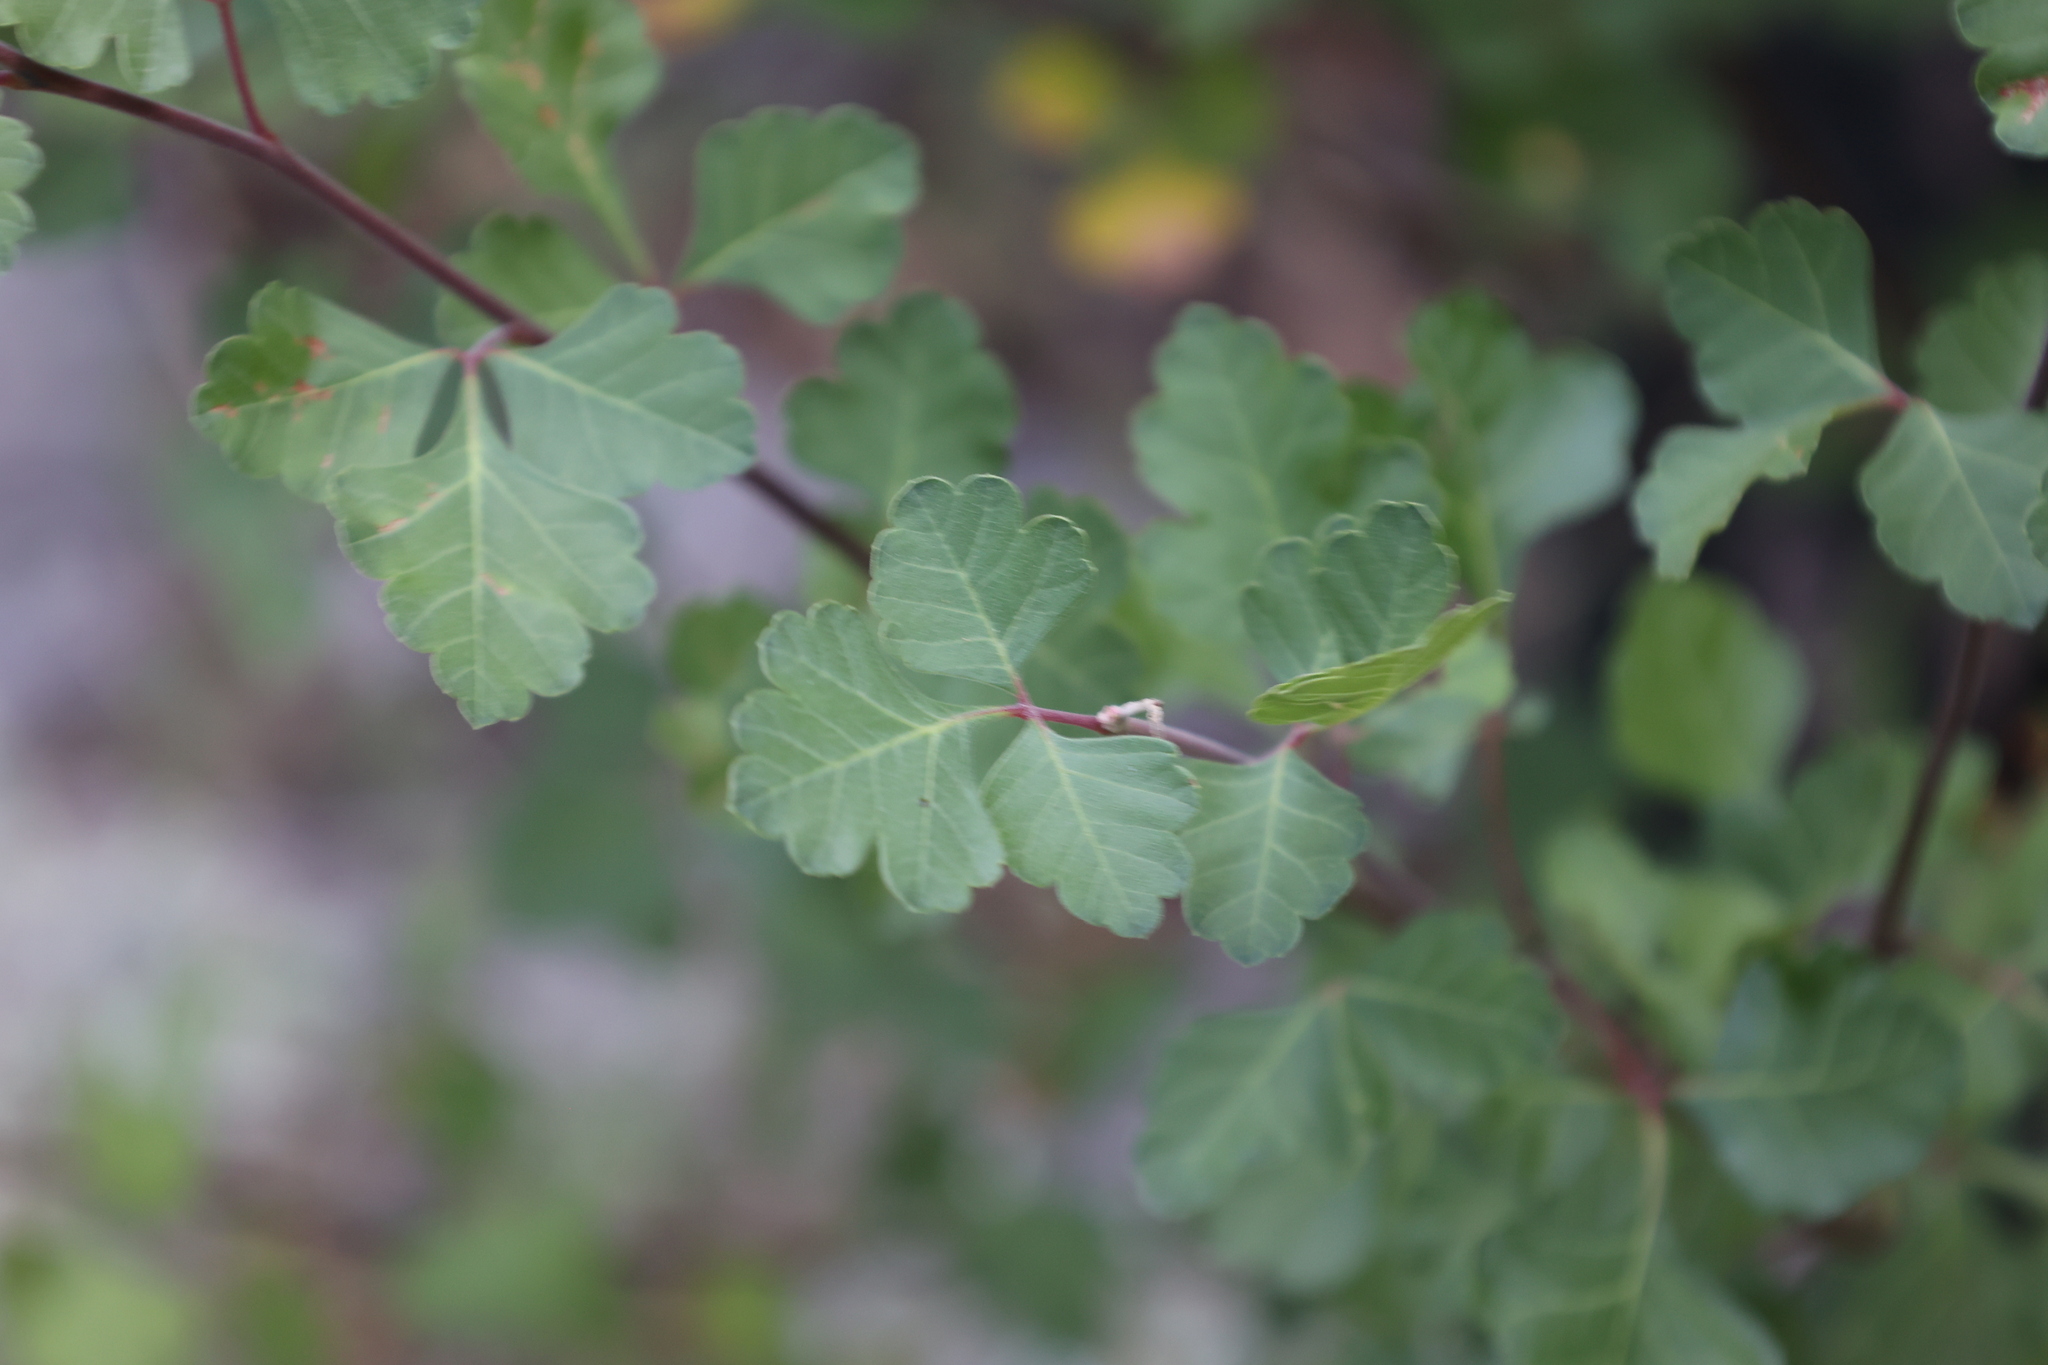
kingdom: Plantae
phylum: Tracheophyta
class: Magnoliopsida
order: Sapindales
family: Anacardiaceae
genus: Rhus
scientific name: Rhus trilobata
